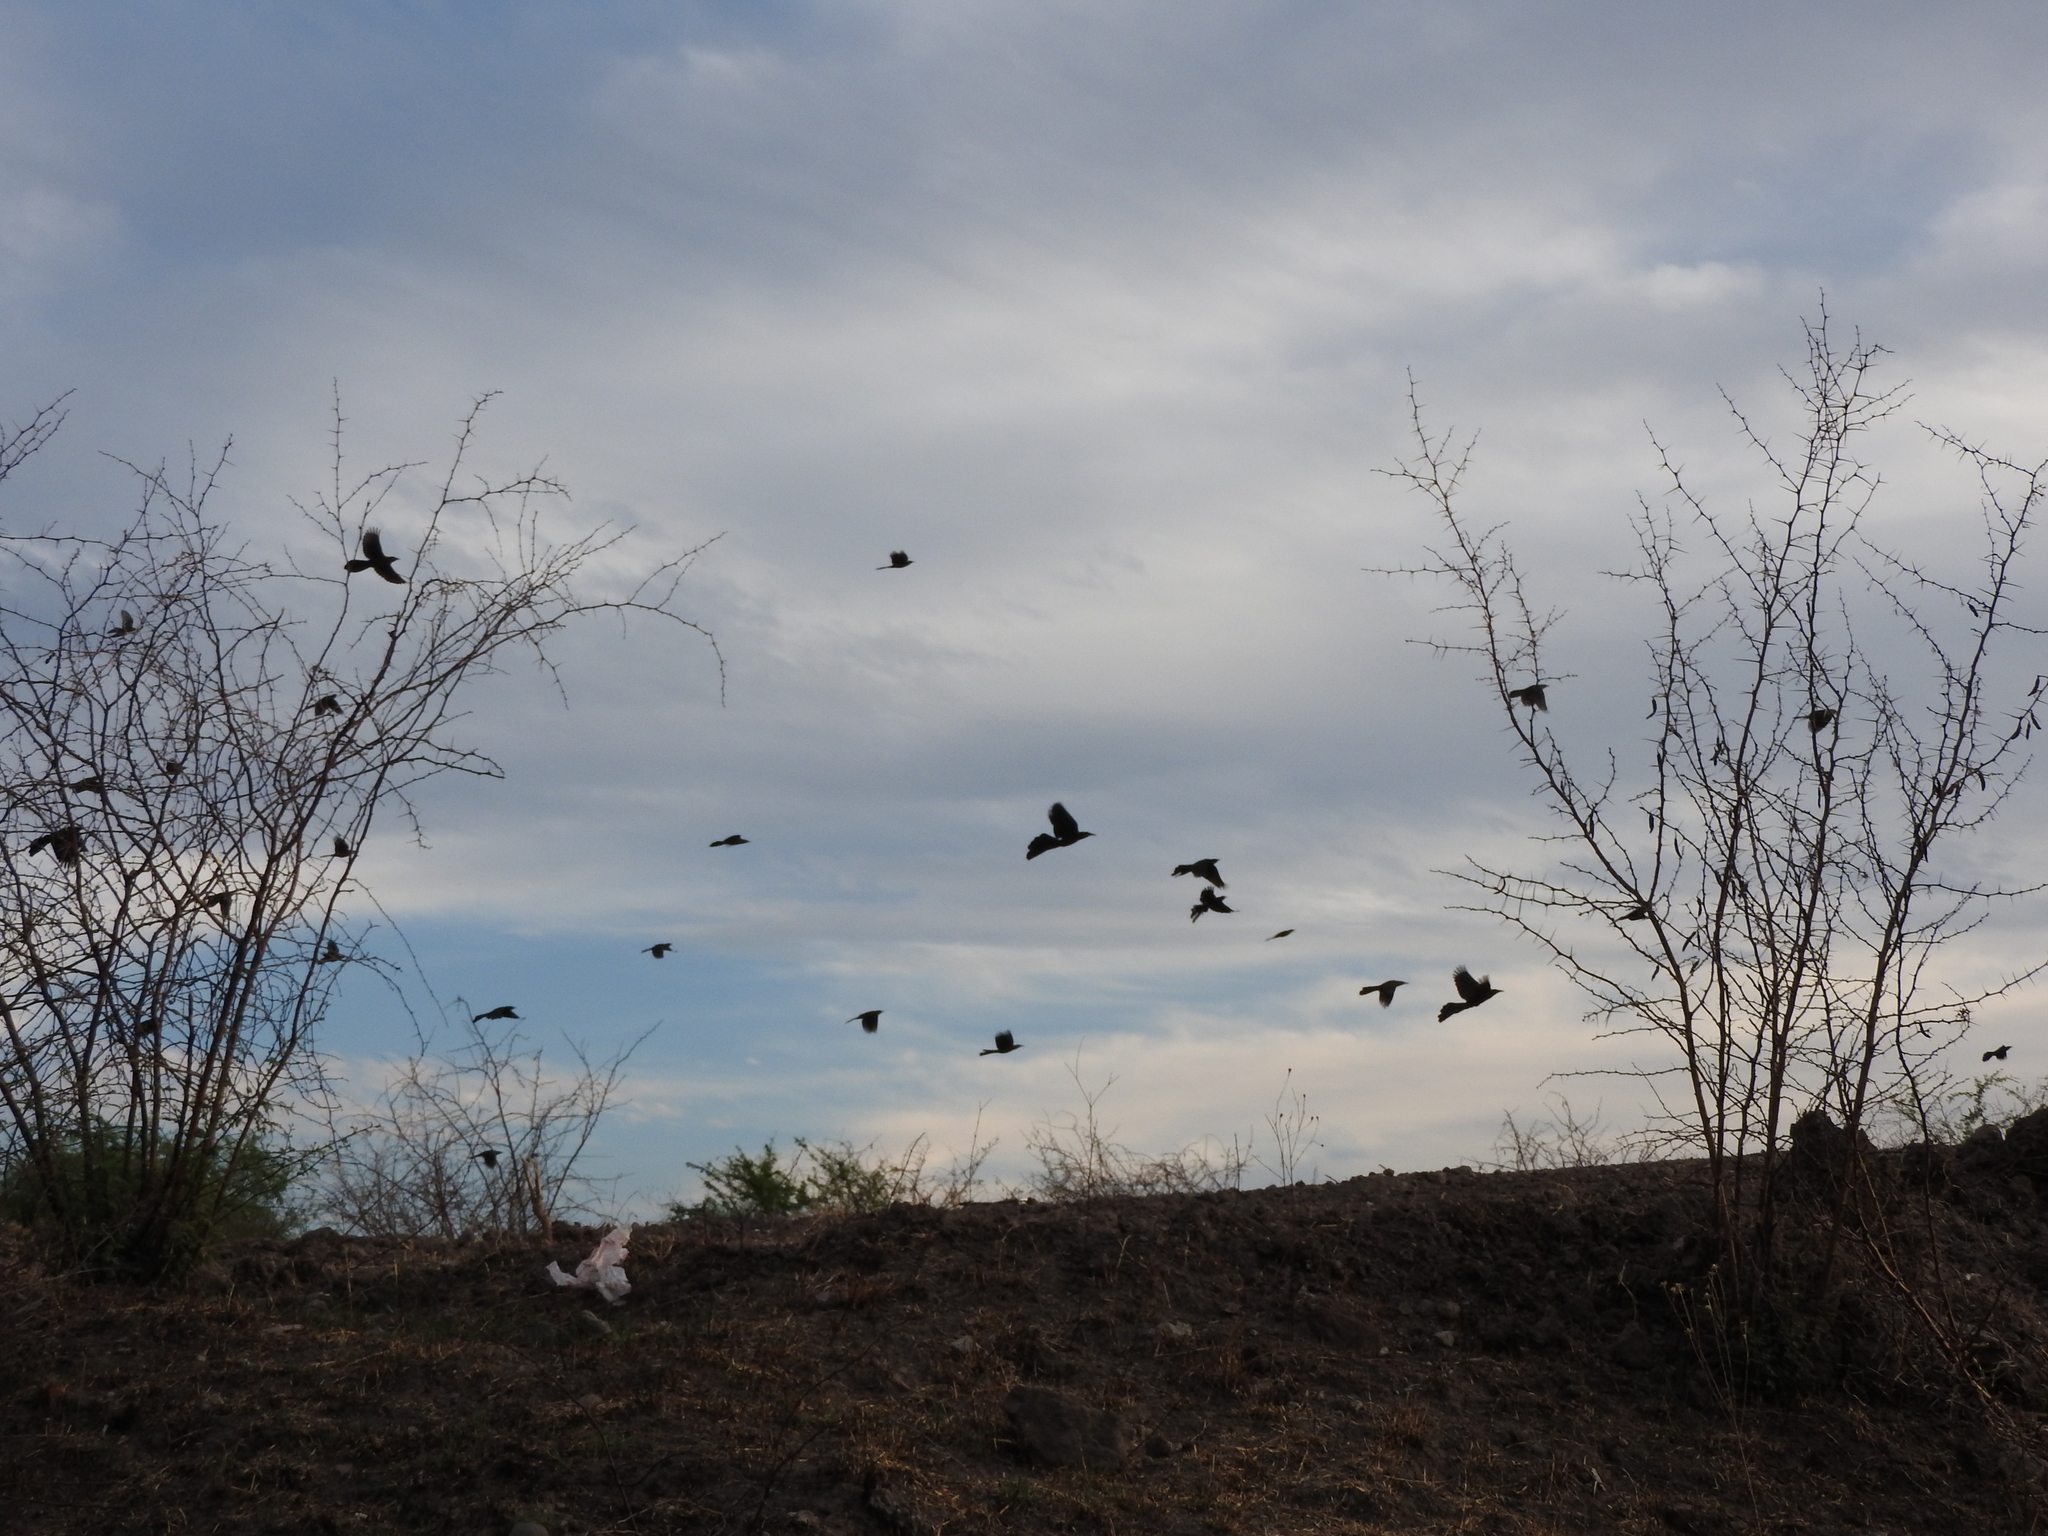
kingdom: Animalia
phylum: Chordata
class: Aves
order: Passeriformes
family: Icteridae
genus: Quiscalus
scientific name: Quiscalus mexicanus
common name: Great-tailed grackle
